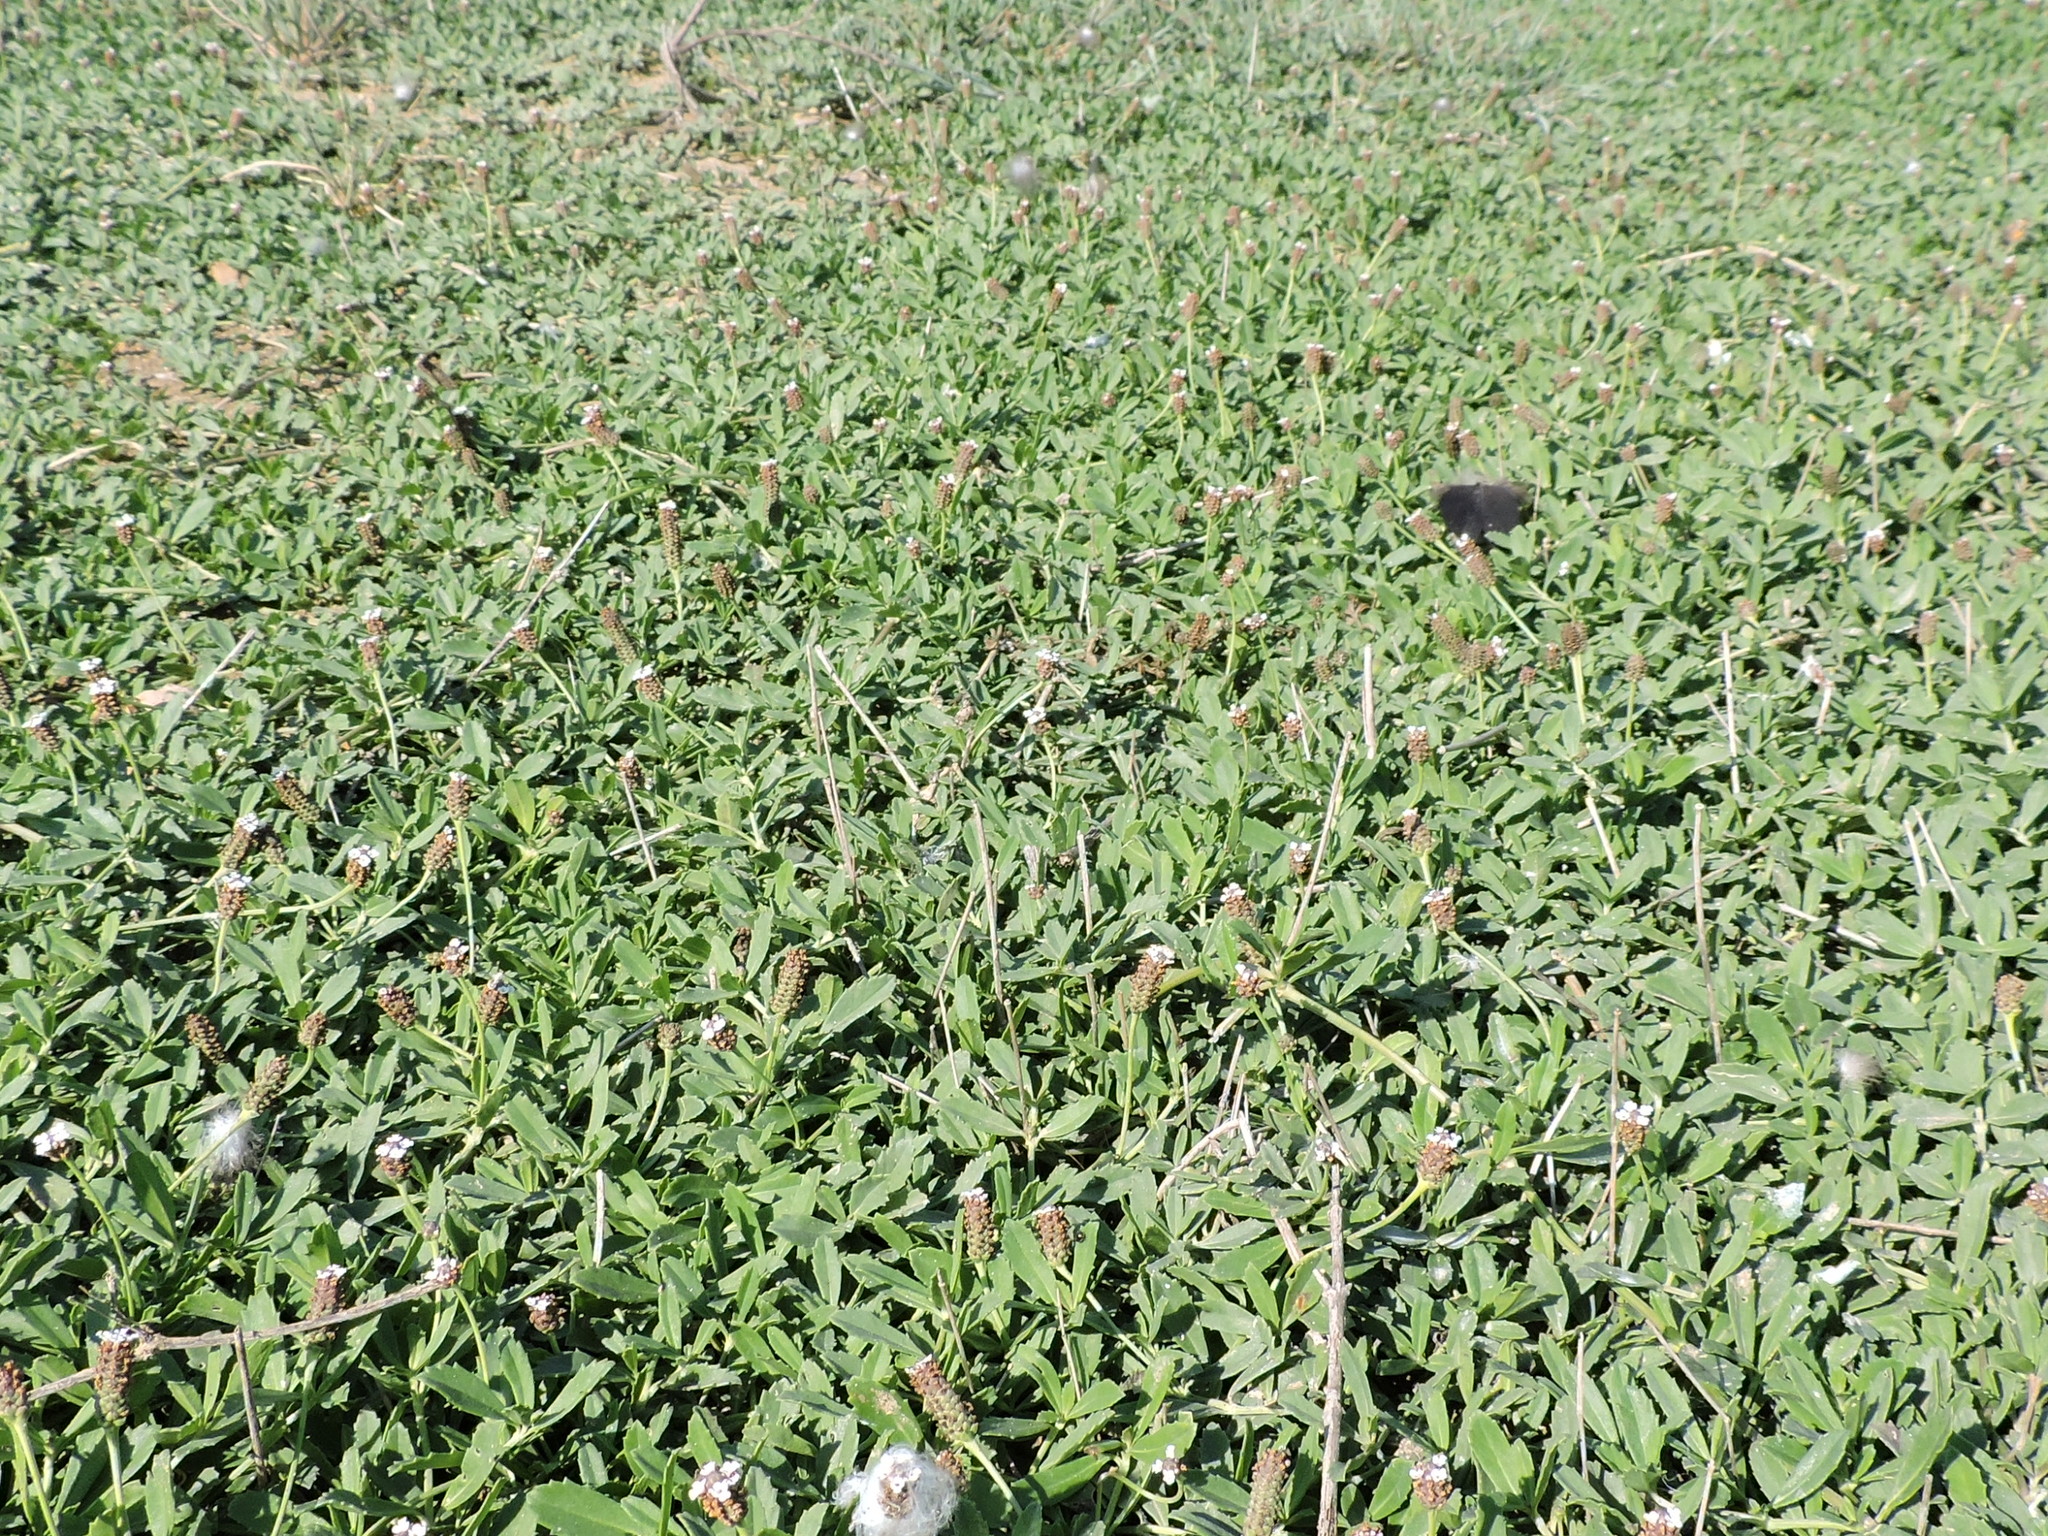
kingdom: Plantae
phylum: Tracheophyta
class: Magnoliopsida
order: Lamiales
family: Verbenaceae
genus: Phyla
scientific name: Phyla nodiflora
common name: Frogfruit
